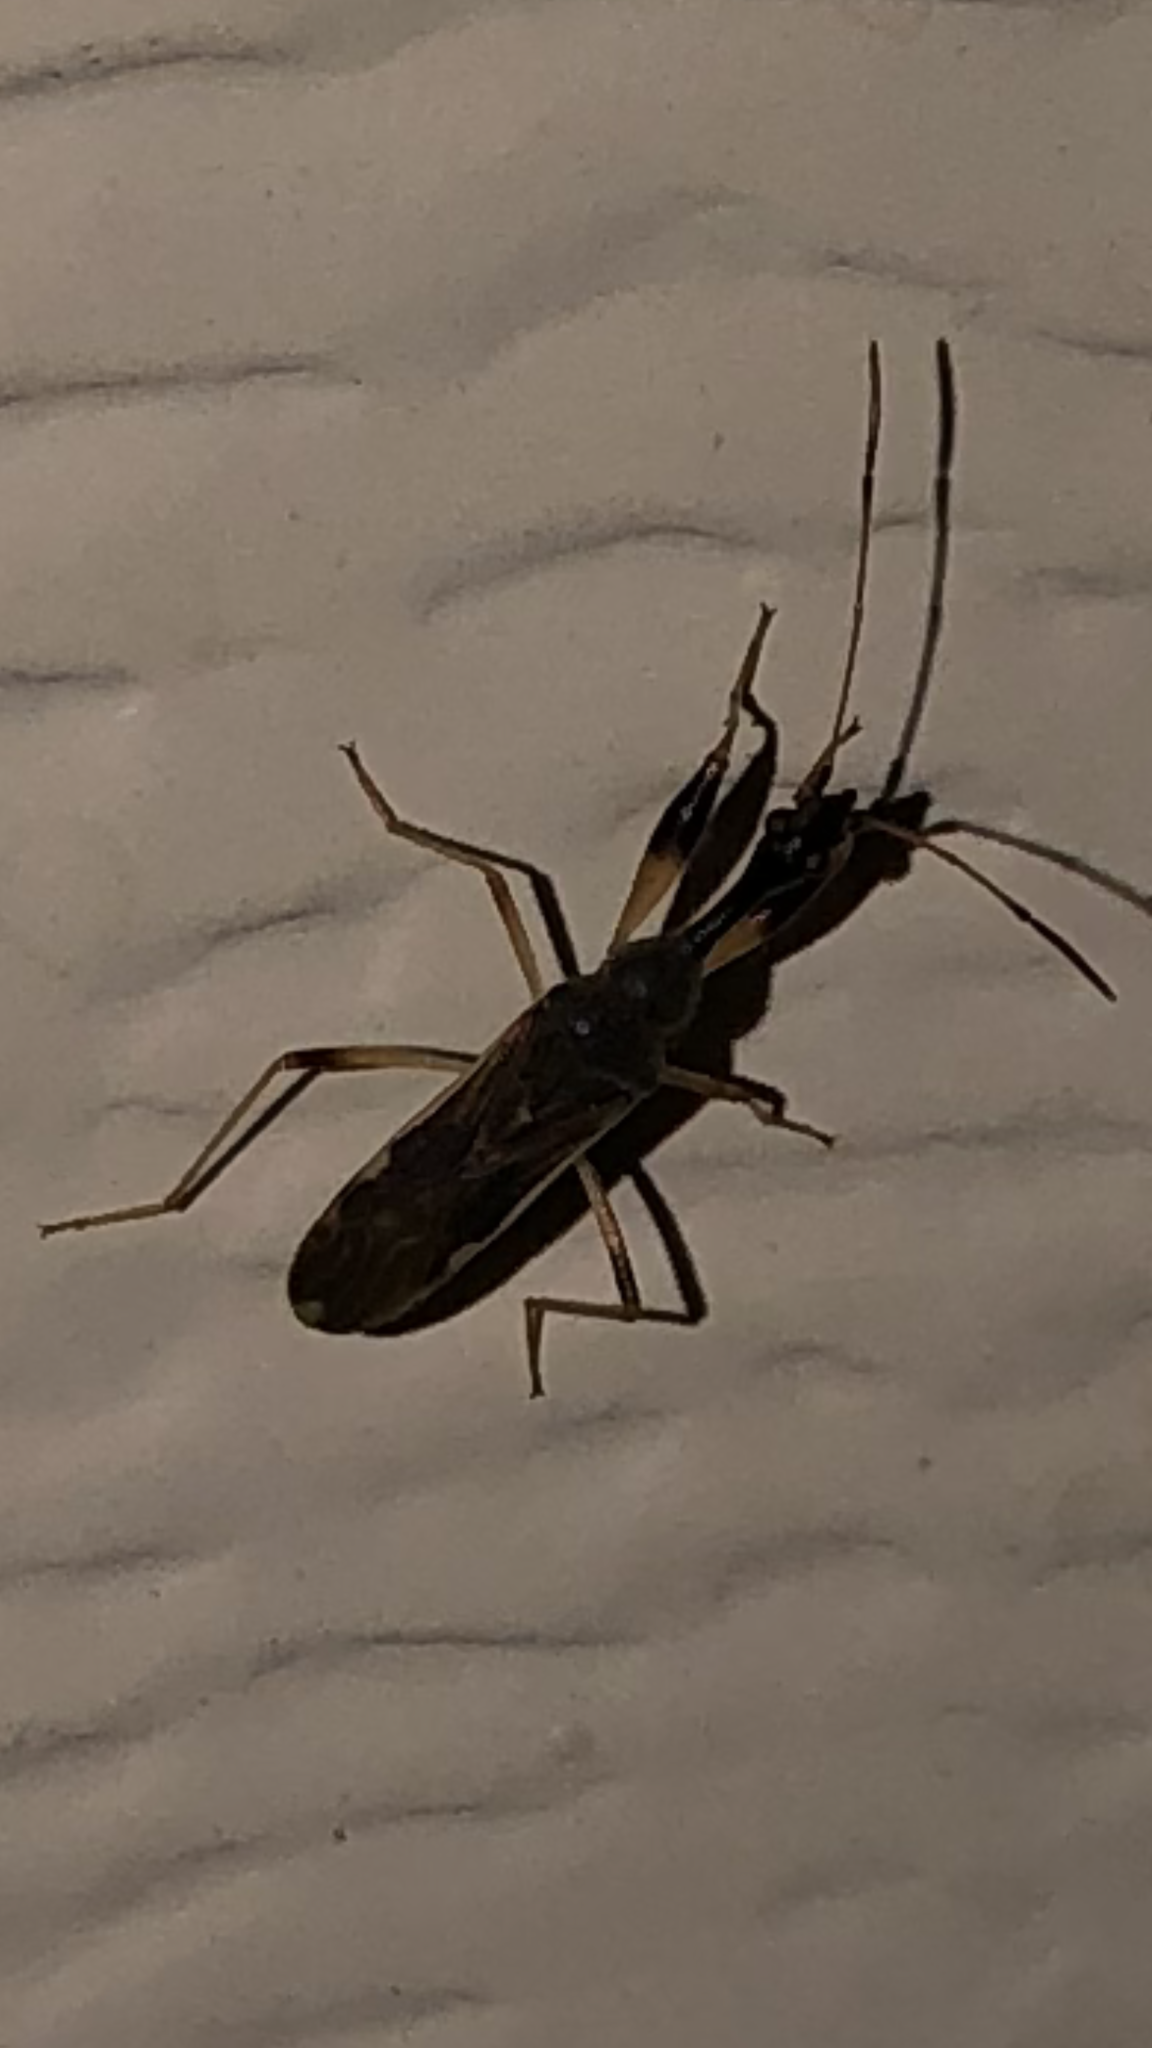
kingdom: Animalia
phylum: Arthropoda
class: Insecta
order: Hemiptera
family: Rhyparochromidae
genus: Myodocha
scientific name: Myodocha serripes
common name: Long-necked seed bug
